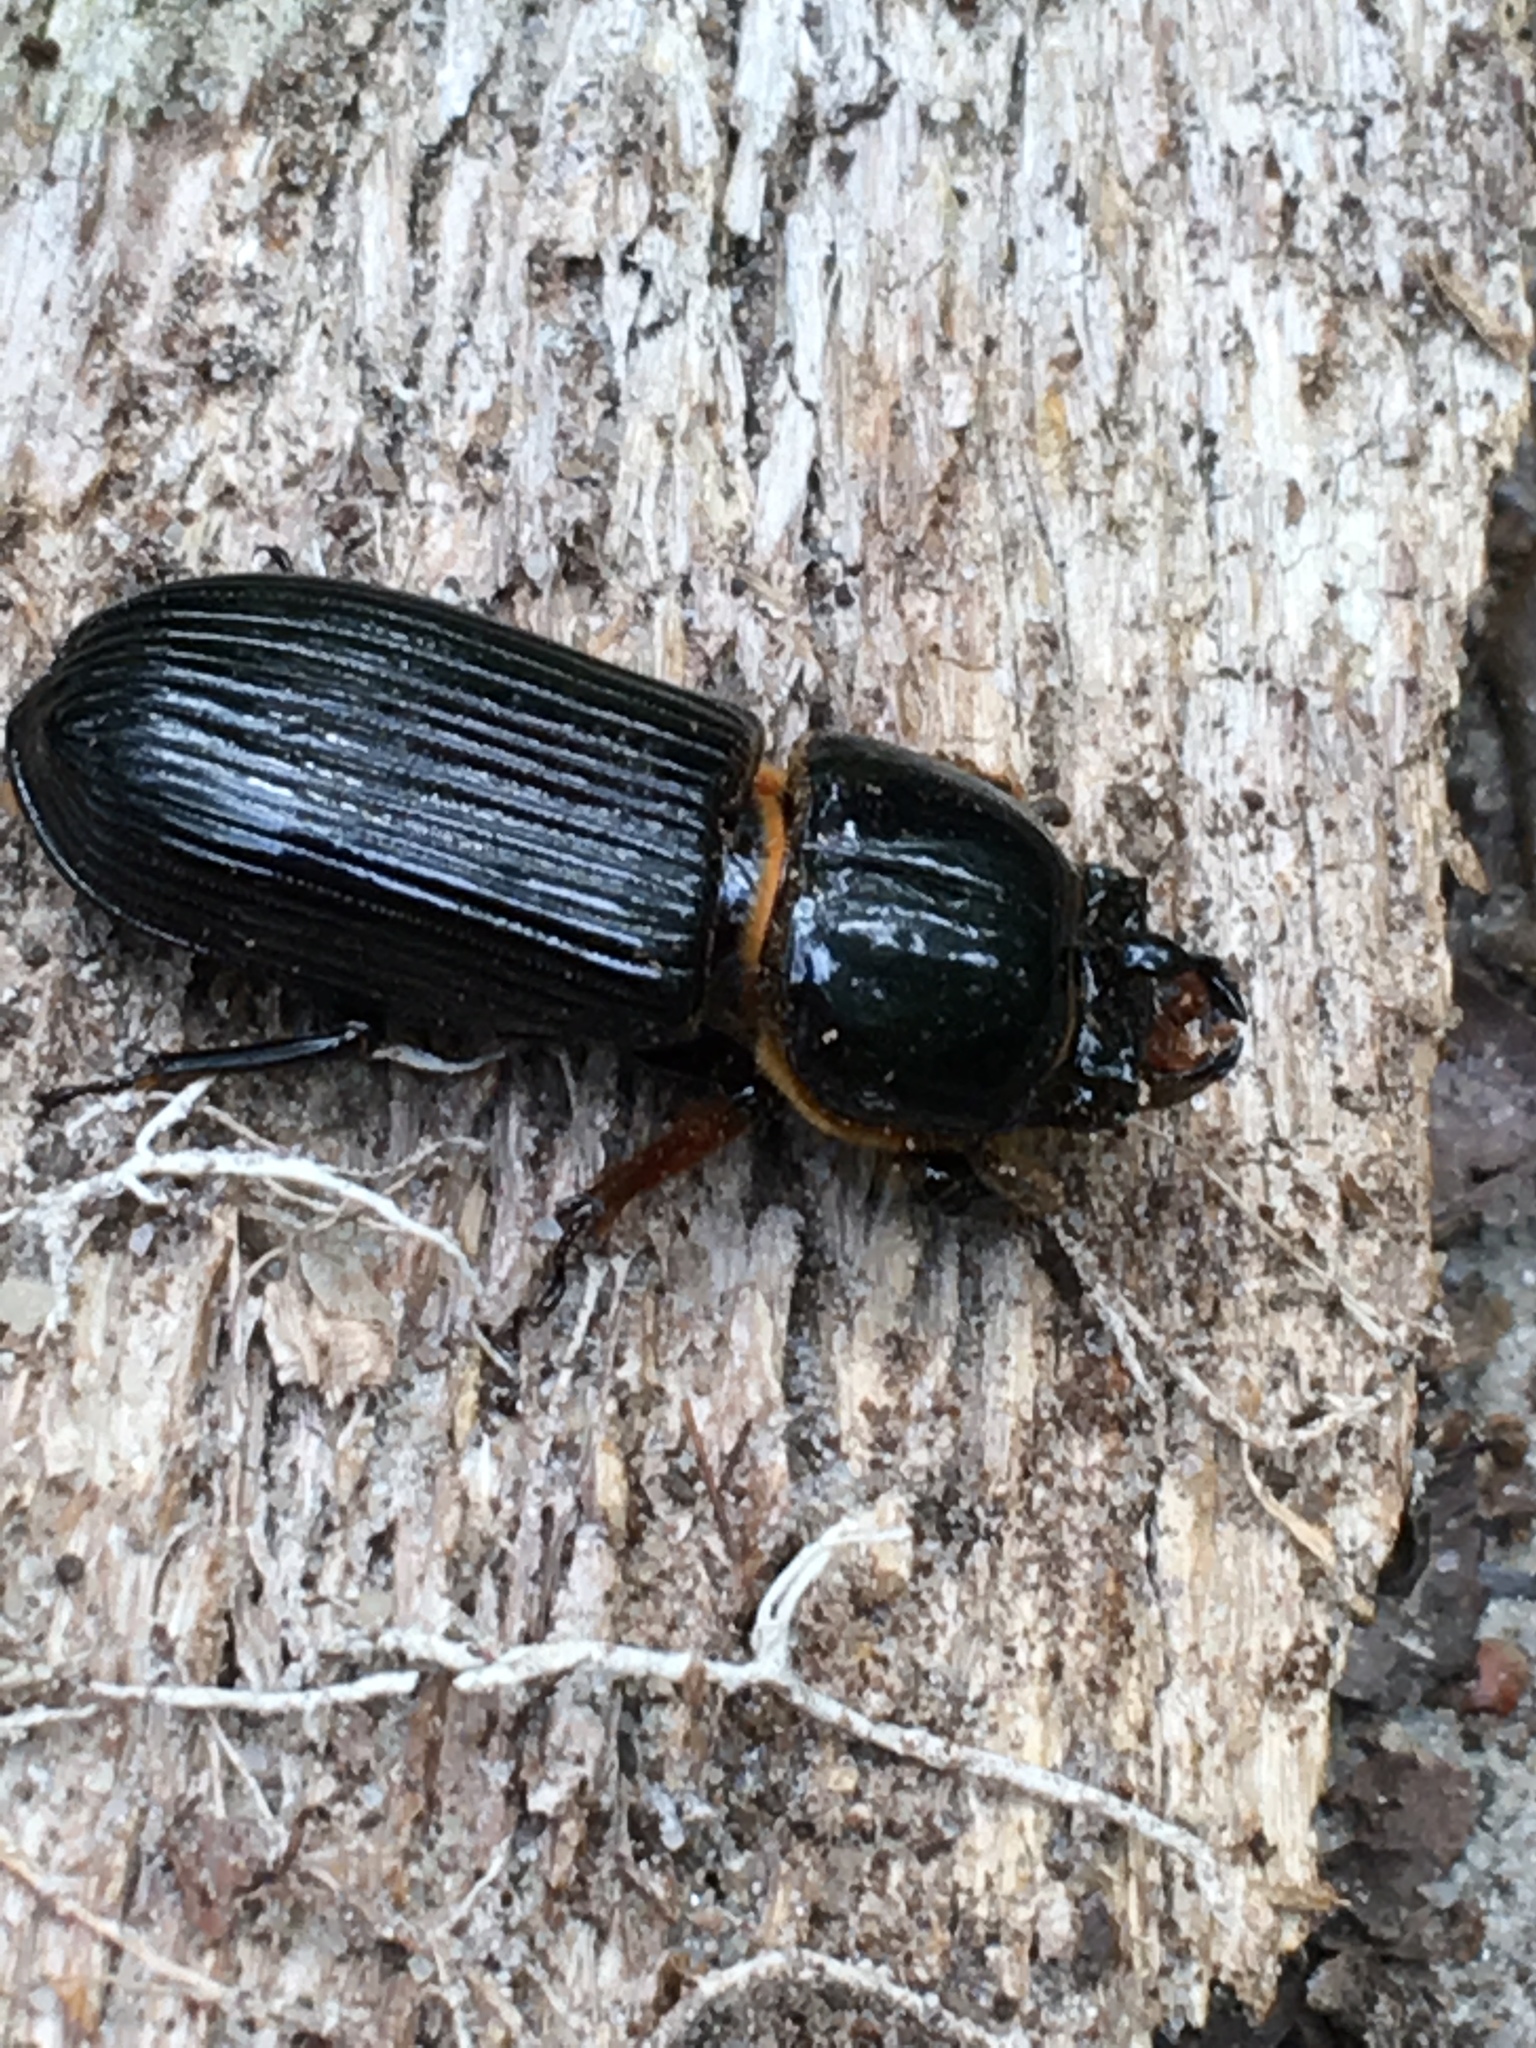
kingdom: Animalia
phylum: Arthropoda
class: Insecta
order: Coleoptera
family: Passalidae
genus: Odontotaenius
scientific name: Odontotaenius disjunctus
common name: Patent leather beetle
